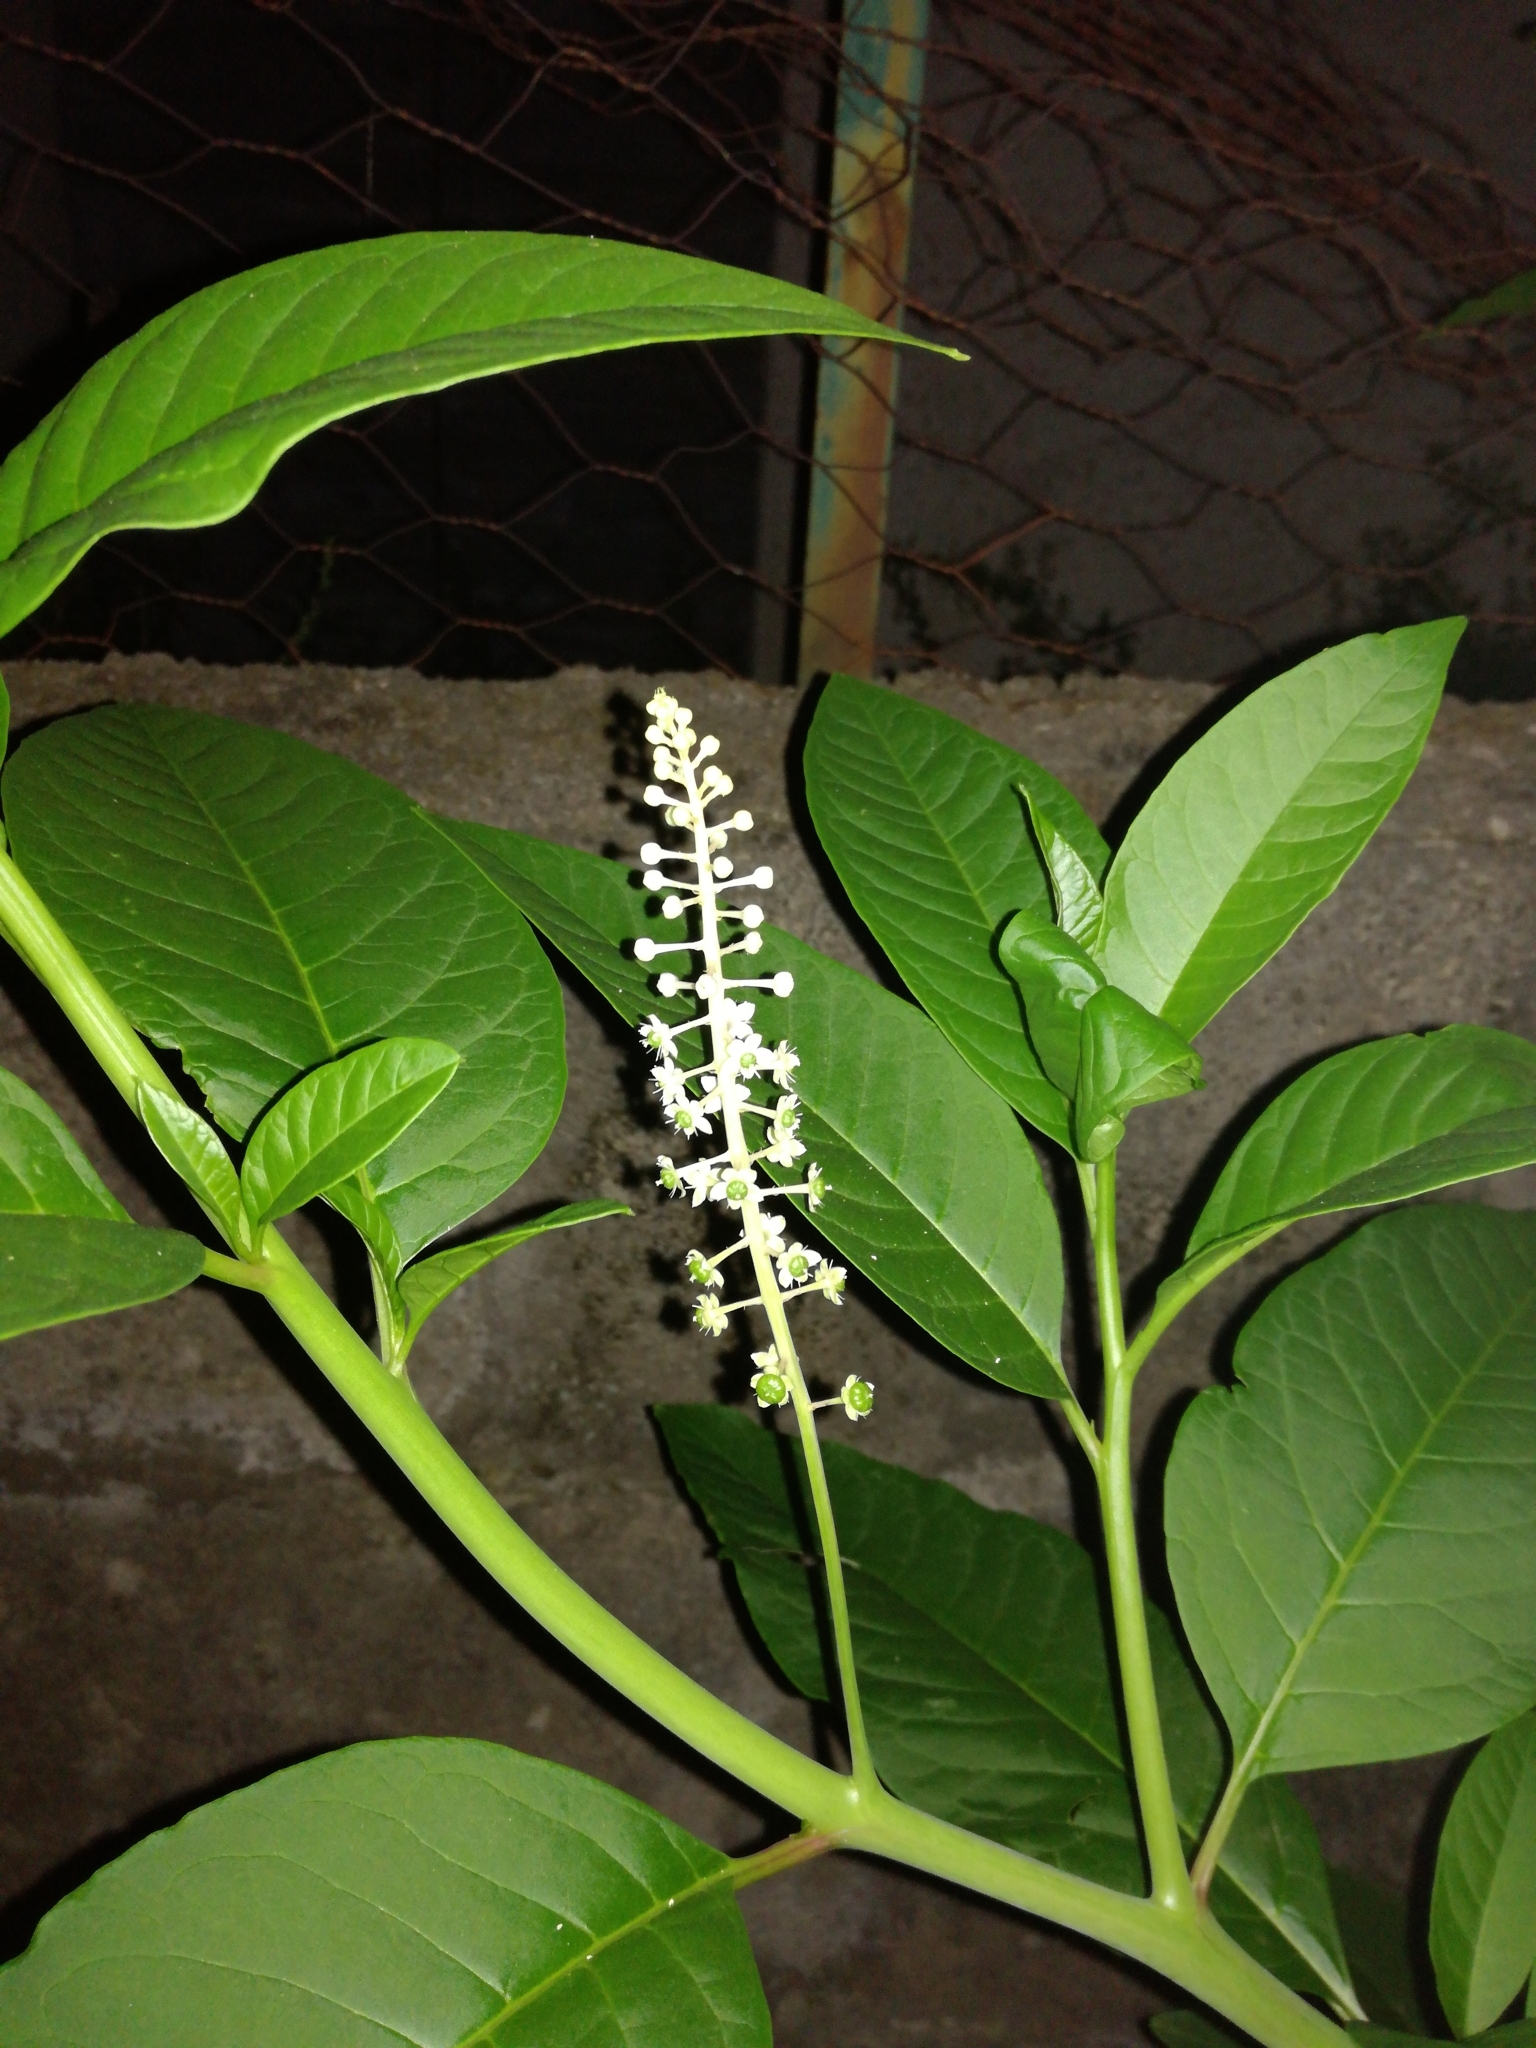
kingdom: Plantae
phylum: Tracheophyta
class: Magnoliopsida
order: Caryophyllales
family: Phytolaccaceae
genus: Phytolacca
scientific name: Phytolacca americana
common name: American pokeweed
